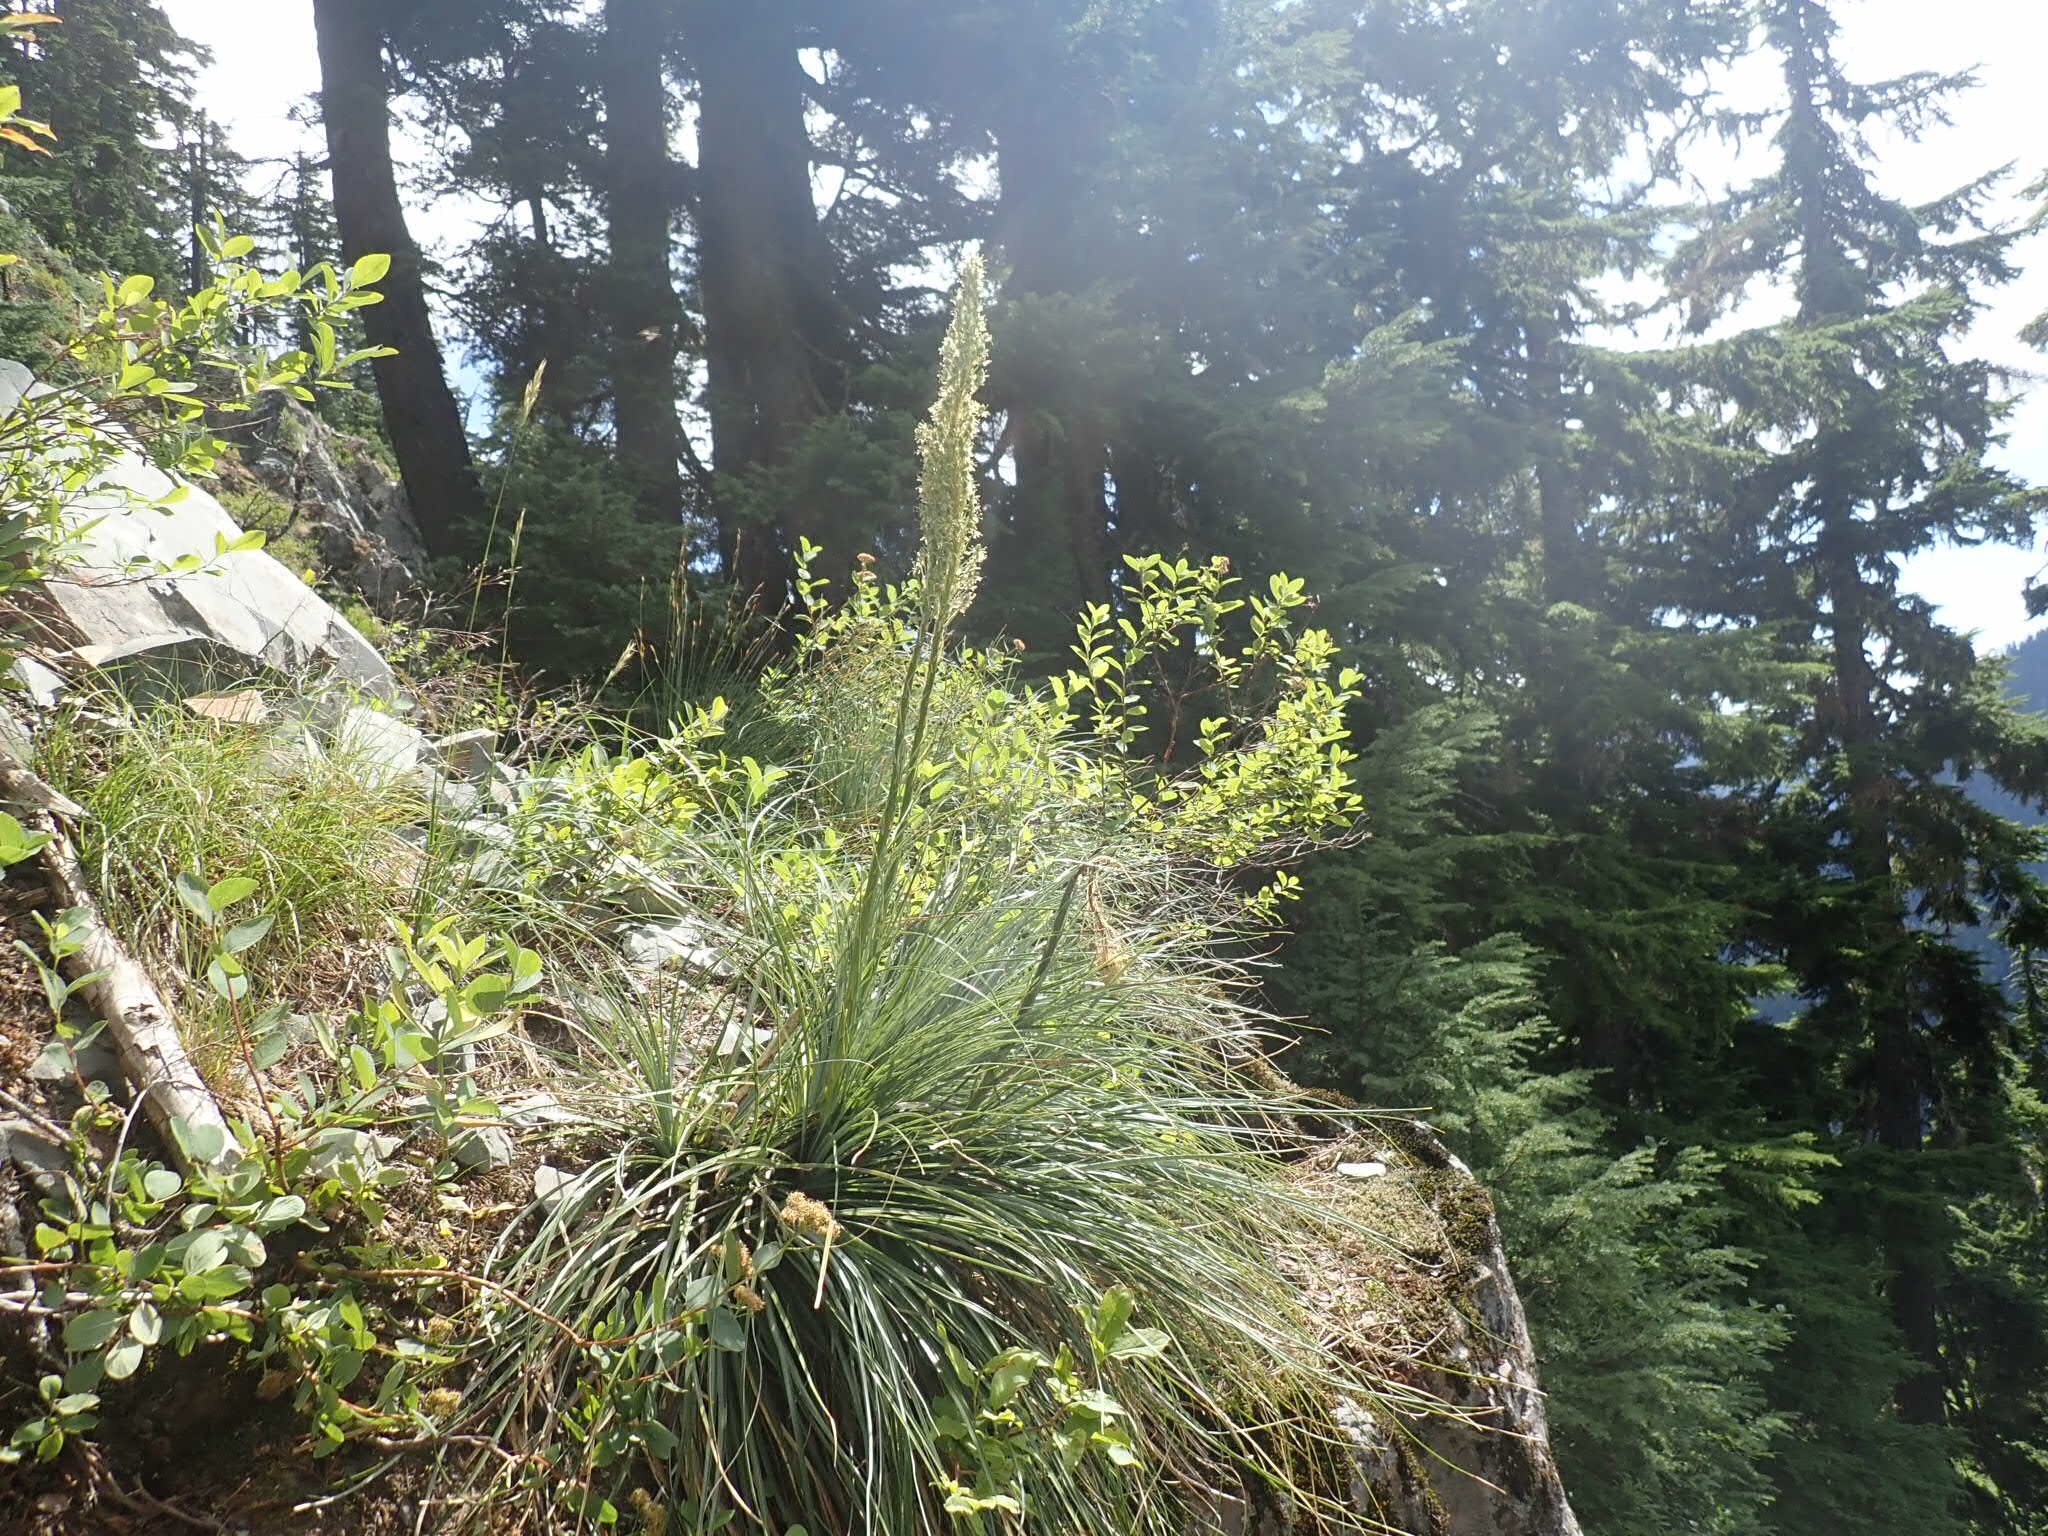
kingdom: Plantae
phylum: Tracheophyta
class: Liliopsida
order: Liliales
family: Melanthiaceae
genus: Xerophyllum
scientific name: Xerophyllum tenax
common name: Bear-grass
